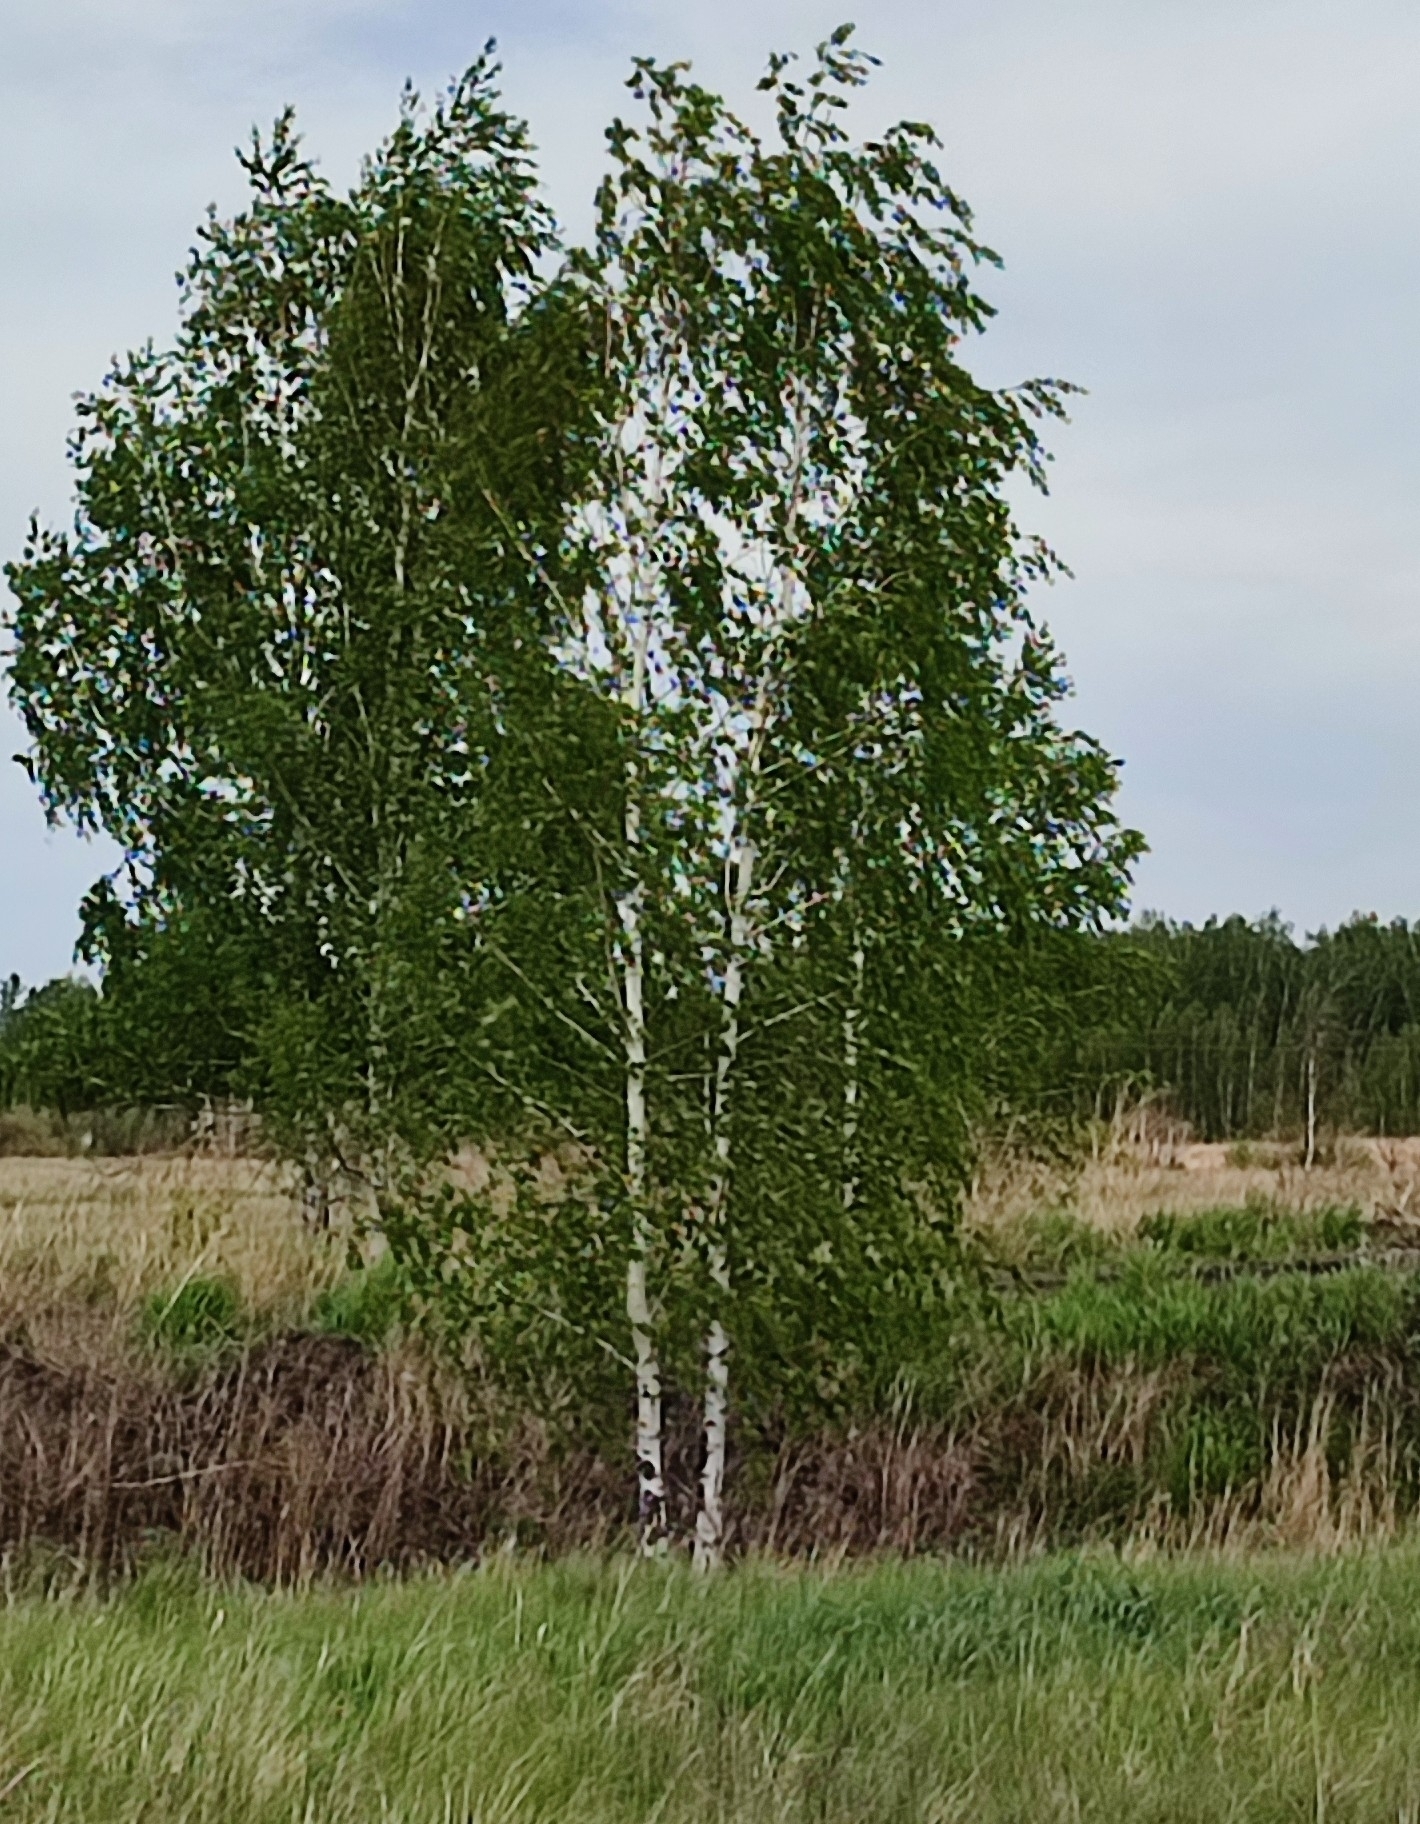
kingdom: Plantae
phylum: Tracheophyta
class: Magnoliopsida
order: Fagales
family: Betulaceae
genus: Betula
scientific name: Betula pendula
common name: Silver birch
